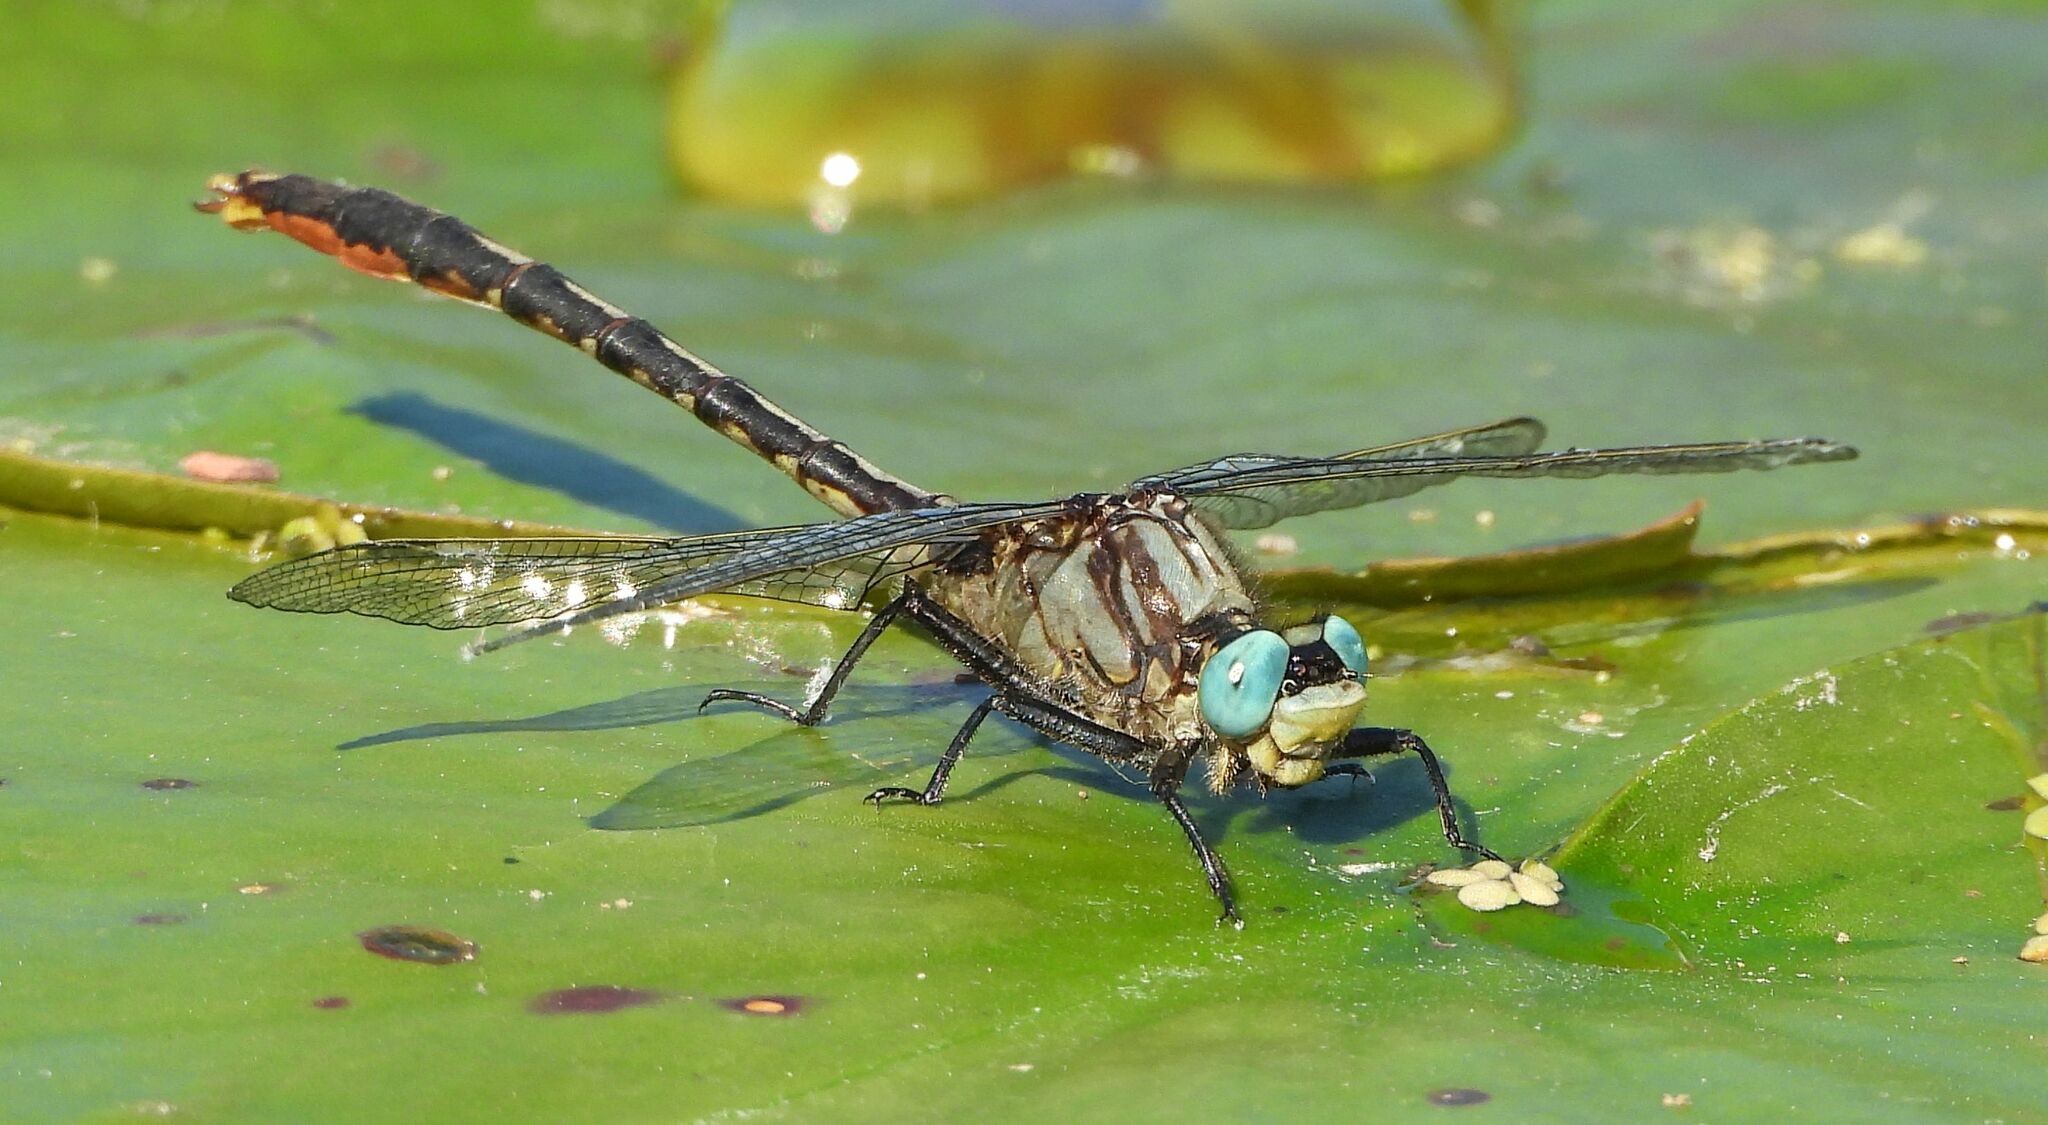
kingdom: Animalia
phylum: Arthropoda
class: Insecta
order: Odonata
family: Gomphidae
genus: Arigomphus
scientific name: Arigomphus furcifer
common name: Lilypad clubtail
